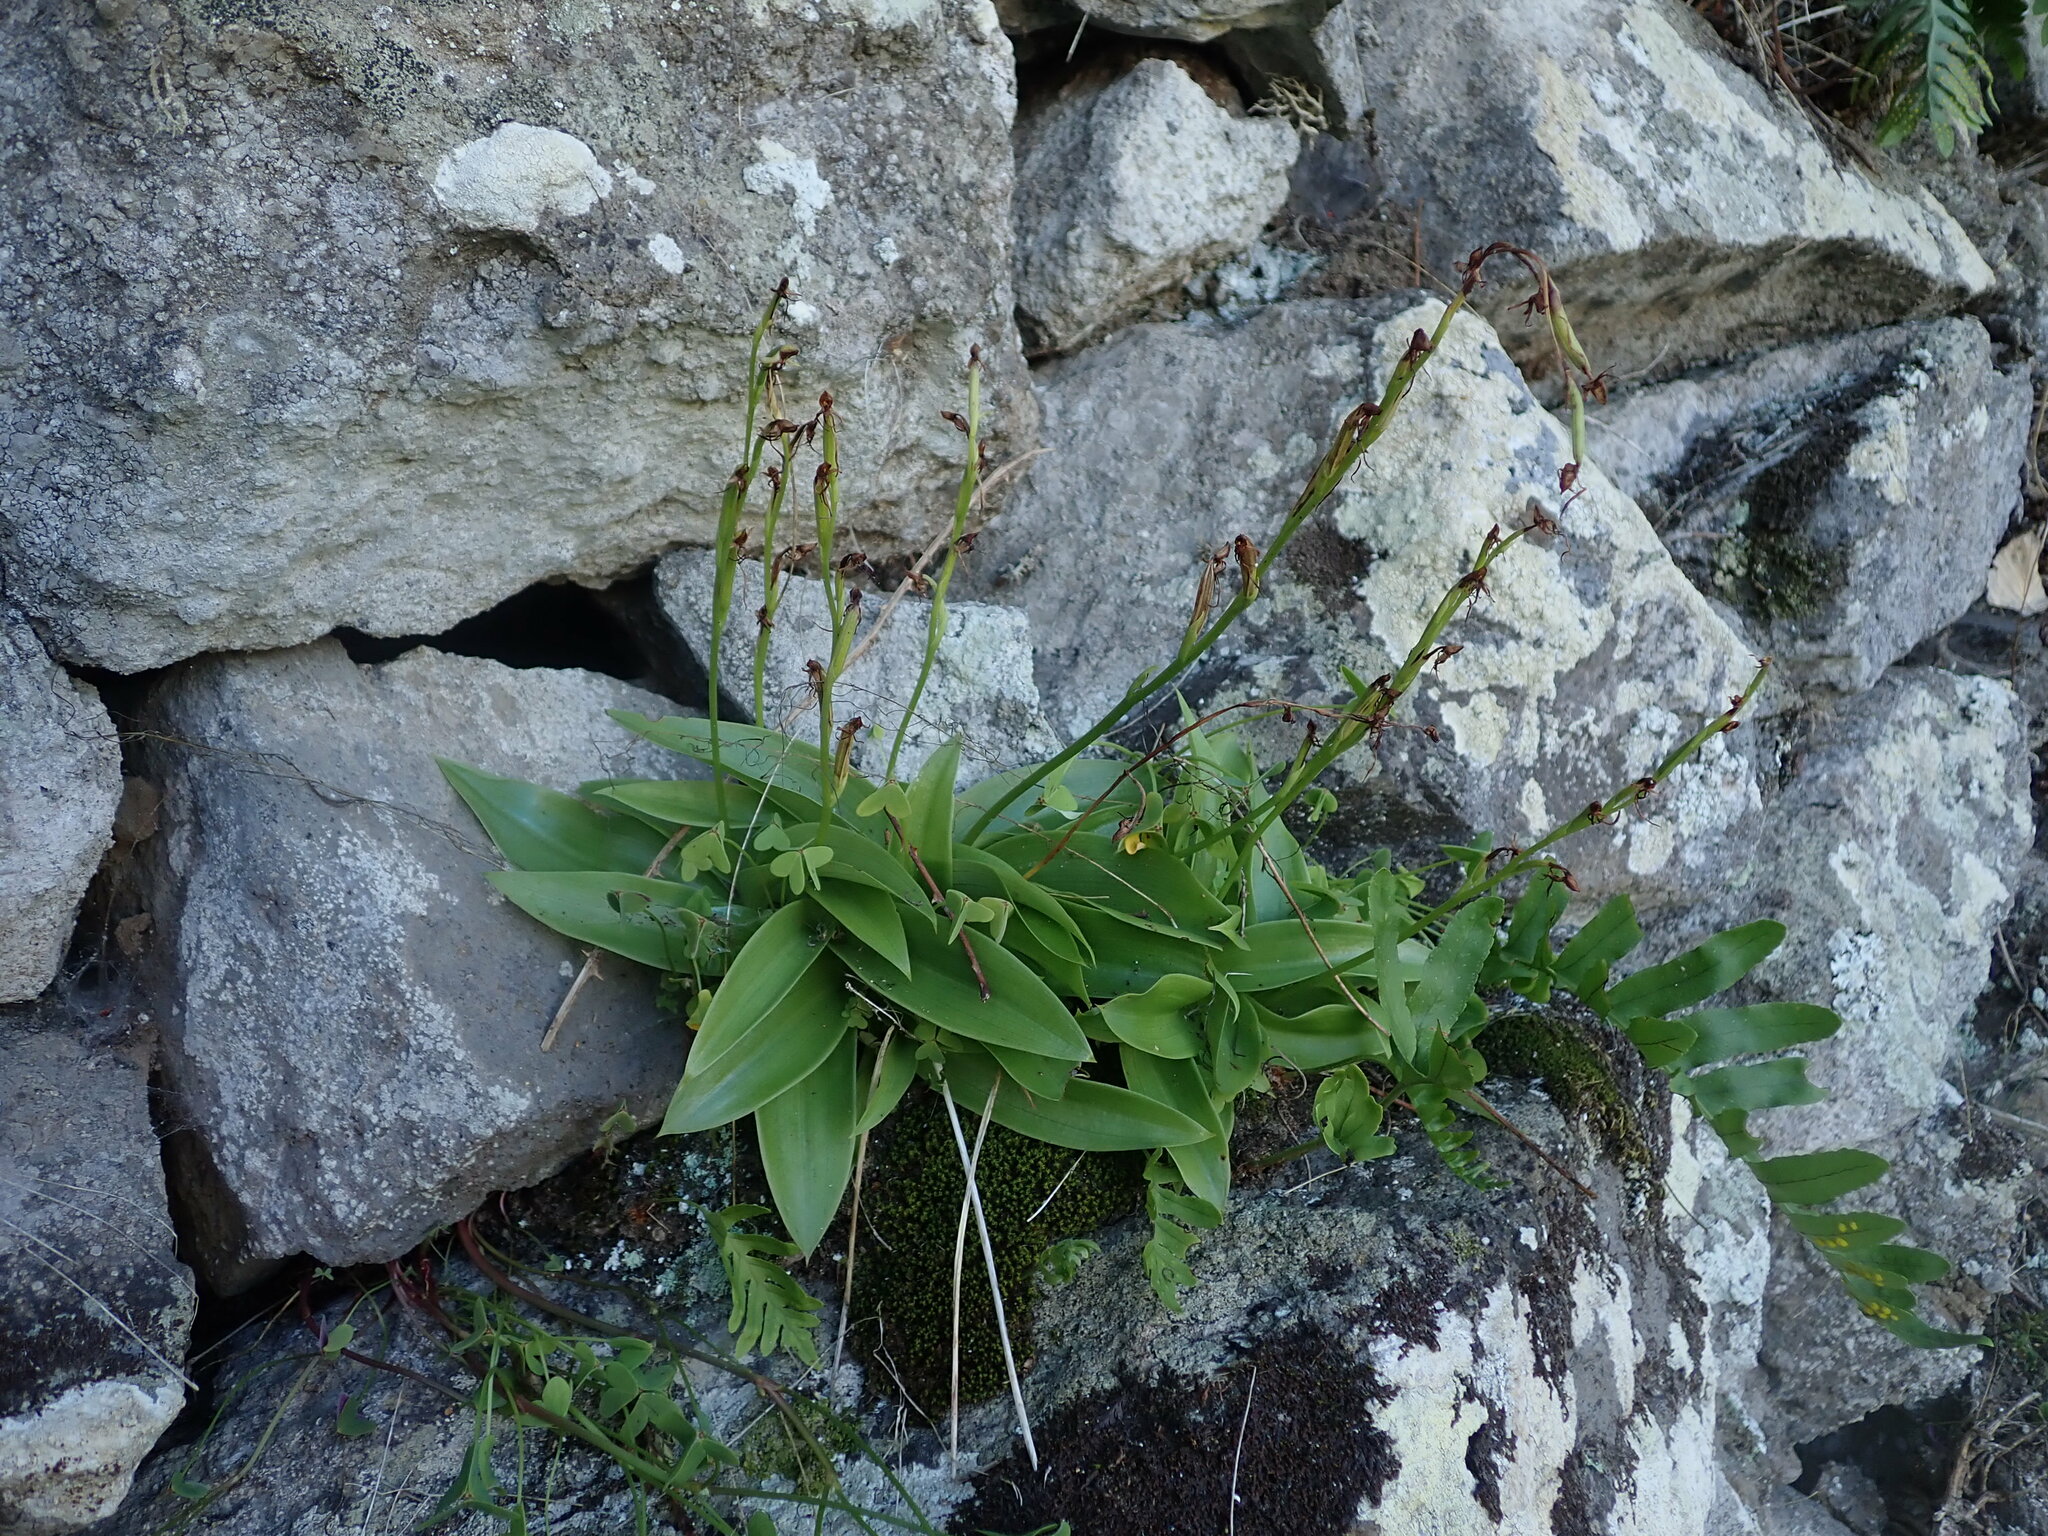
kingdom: Plantae
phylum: Tracheophyta
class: Liliopsida
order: Asparagales
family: Orchidaceae
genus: Habenaria
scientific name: Habenaria tridactylites
